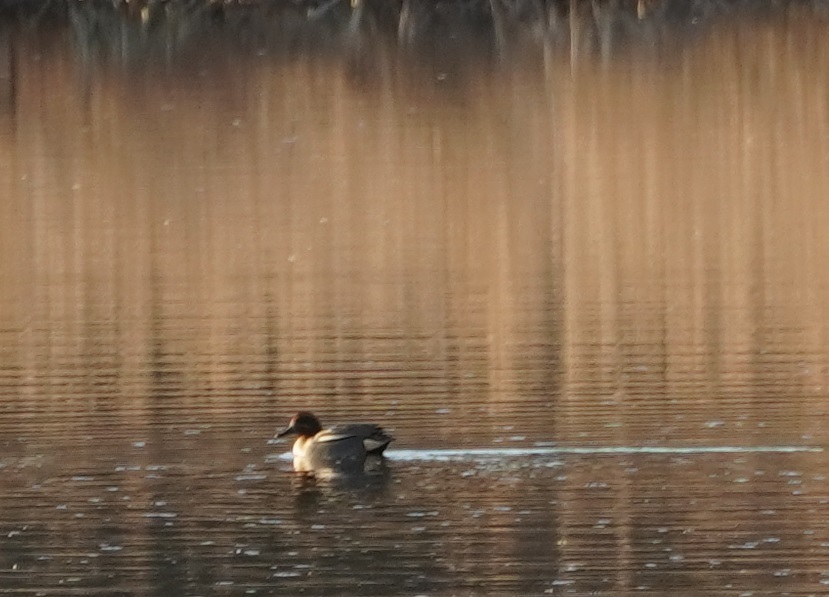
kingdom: Animalia
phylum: Chordata
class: Aves
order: Anseriformes
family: Anatidae
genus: Anas
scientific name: Anas crecca
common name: Eurasian teal
